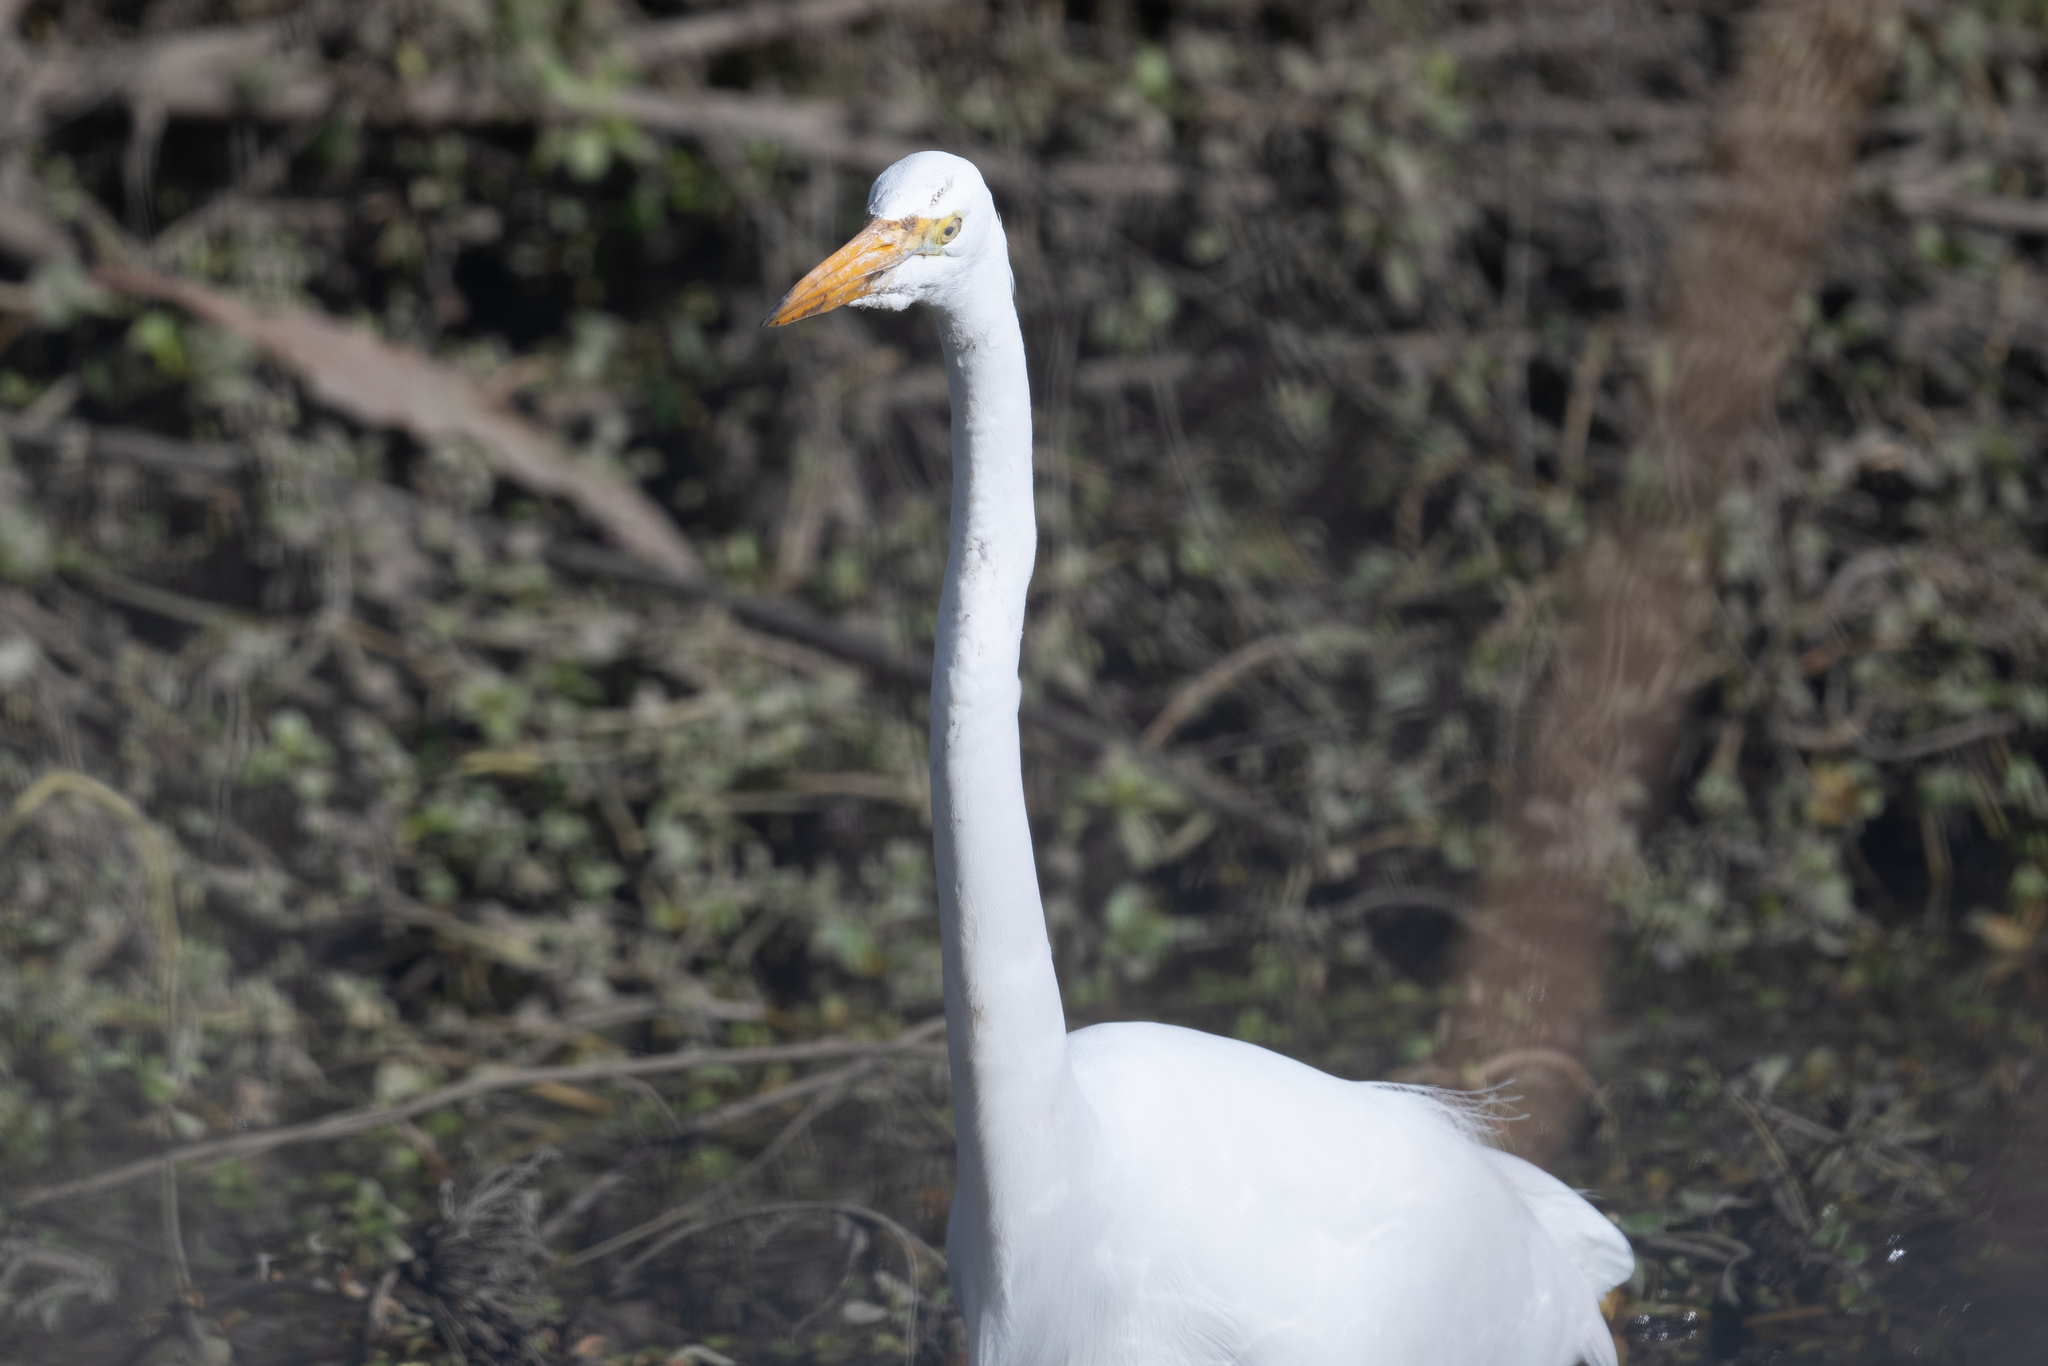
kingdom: Animalia
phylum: Chordata
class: Aves
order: Pelecaniformes
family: Ardeidae
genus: Ardea
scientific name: Ardea alba
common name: Great egret
